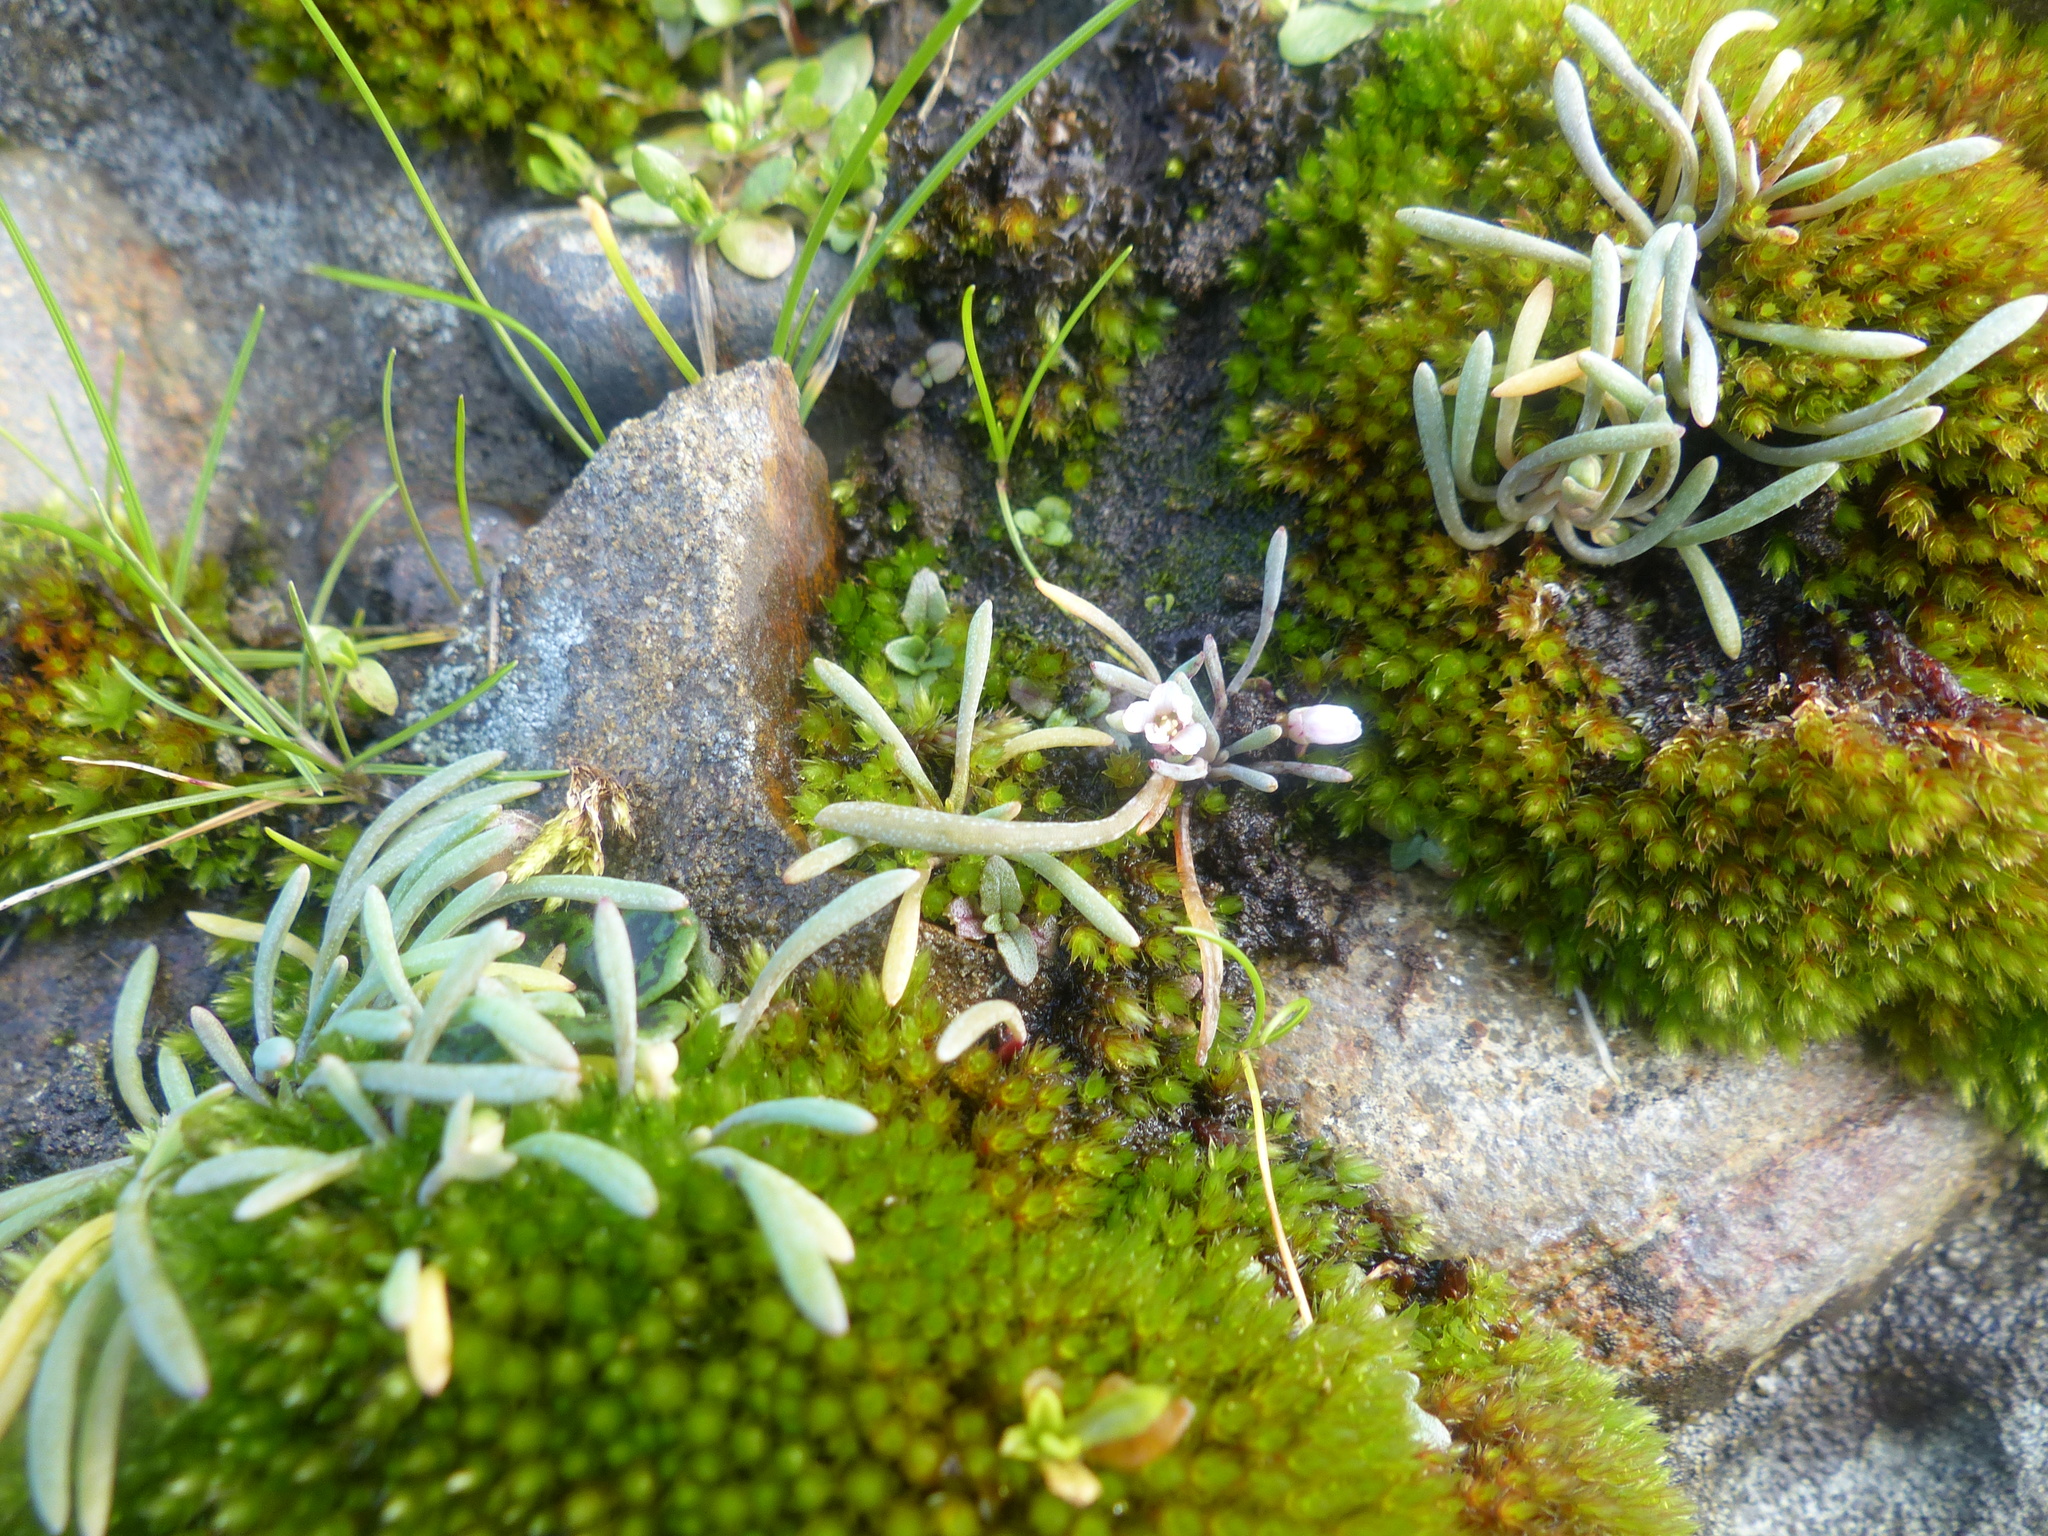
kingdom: Plantae
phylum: Tracheophyta
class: Magnoliopsida
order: Caryophyllales
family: Montiaceae
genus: Claytonia
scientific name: Claytonia exigua
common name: Pale spring beauty
